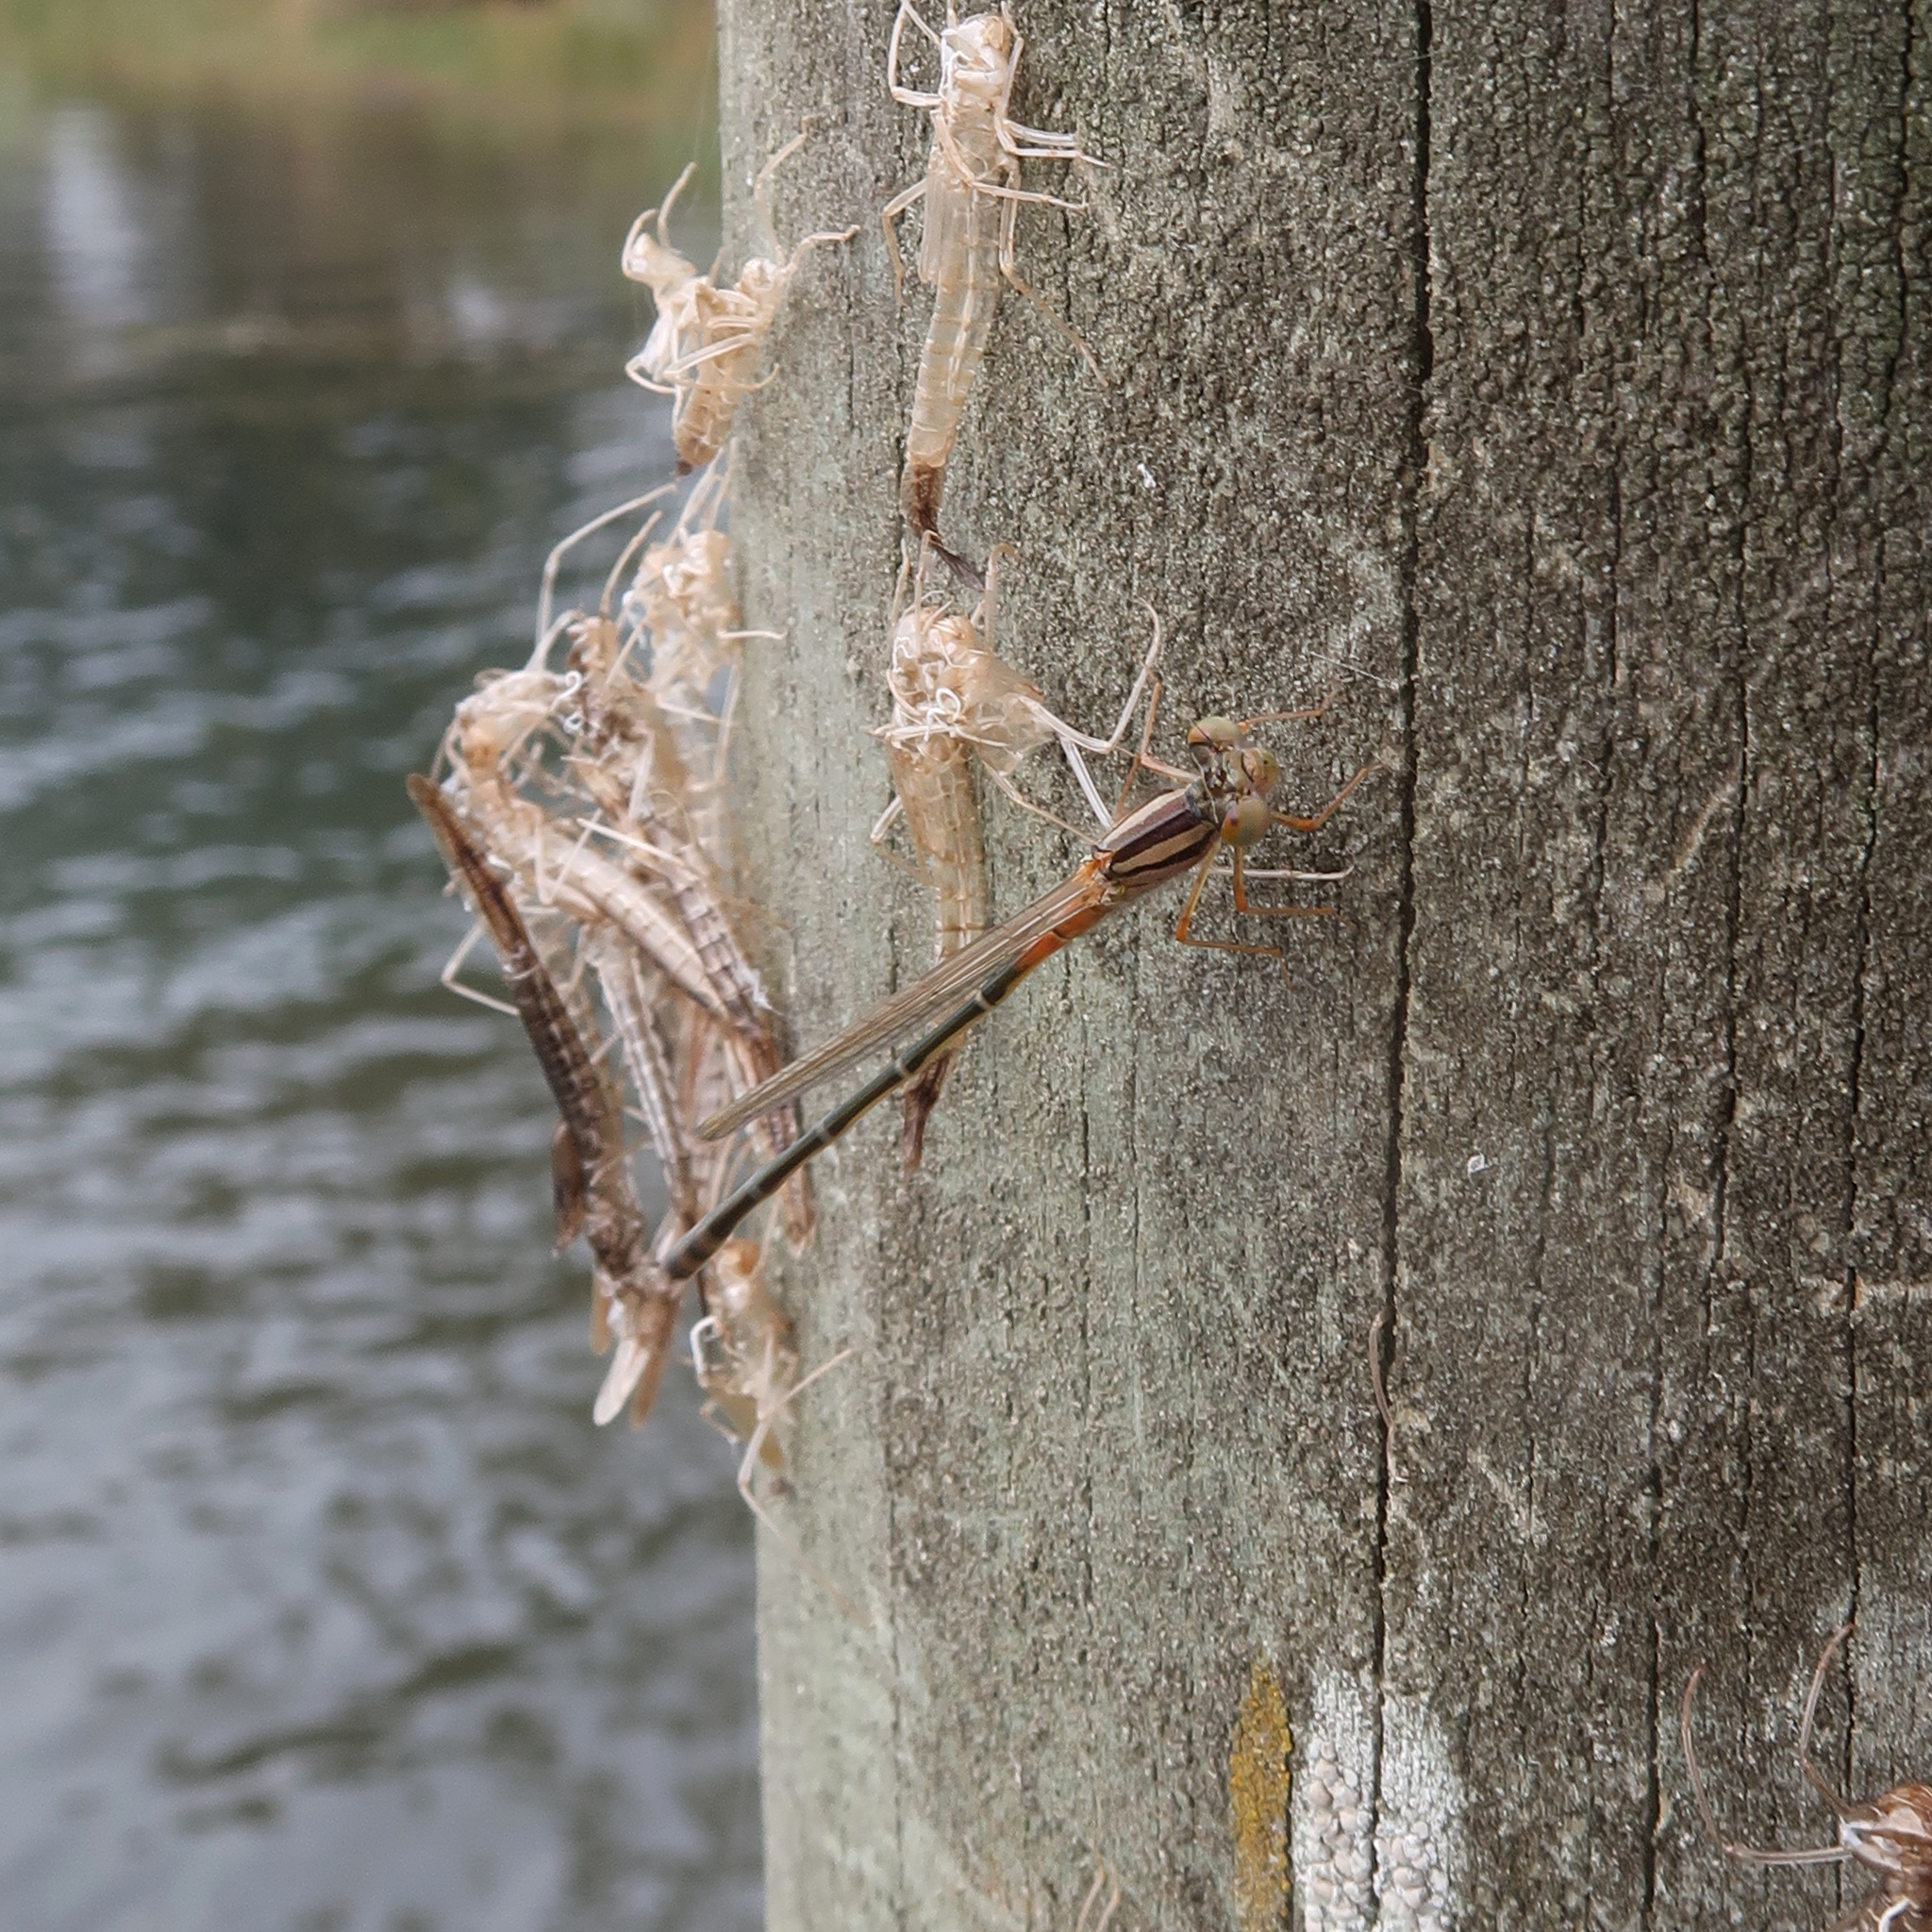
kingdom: Animalia
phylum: Arthropoda
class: Insecta
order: Odonata
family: Coenagrionidae
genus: Xanthagrion
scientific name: Xanthagrion erythroneurum
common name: Red and blue damsel
